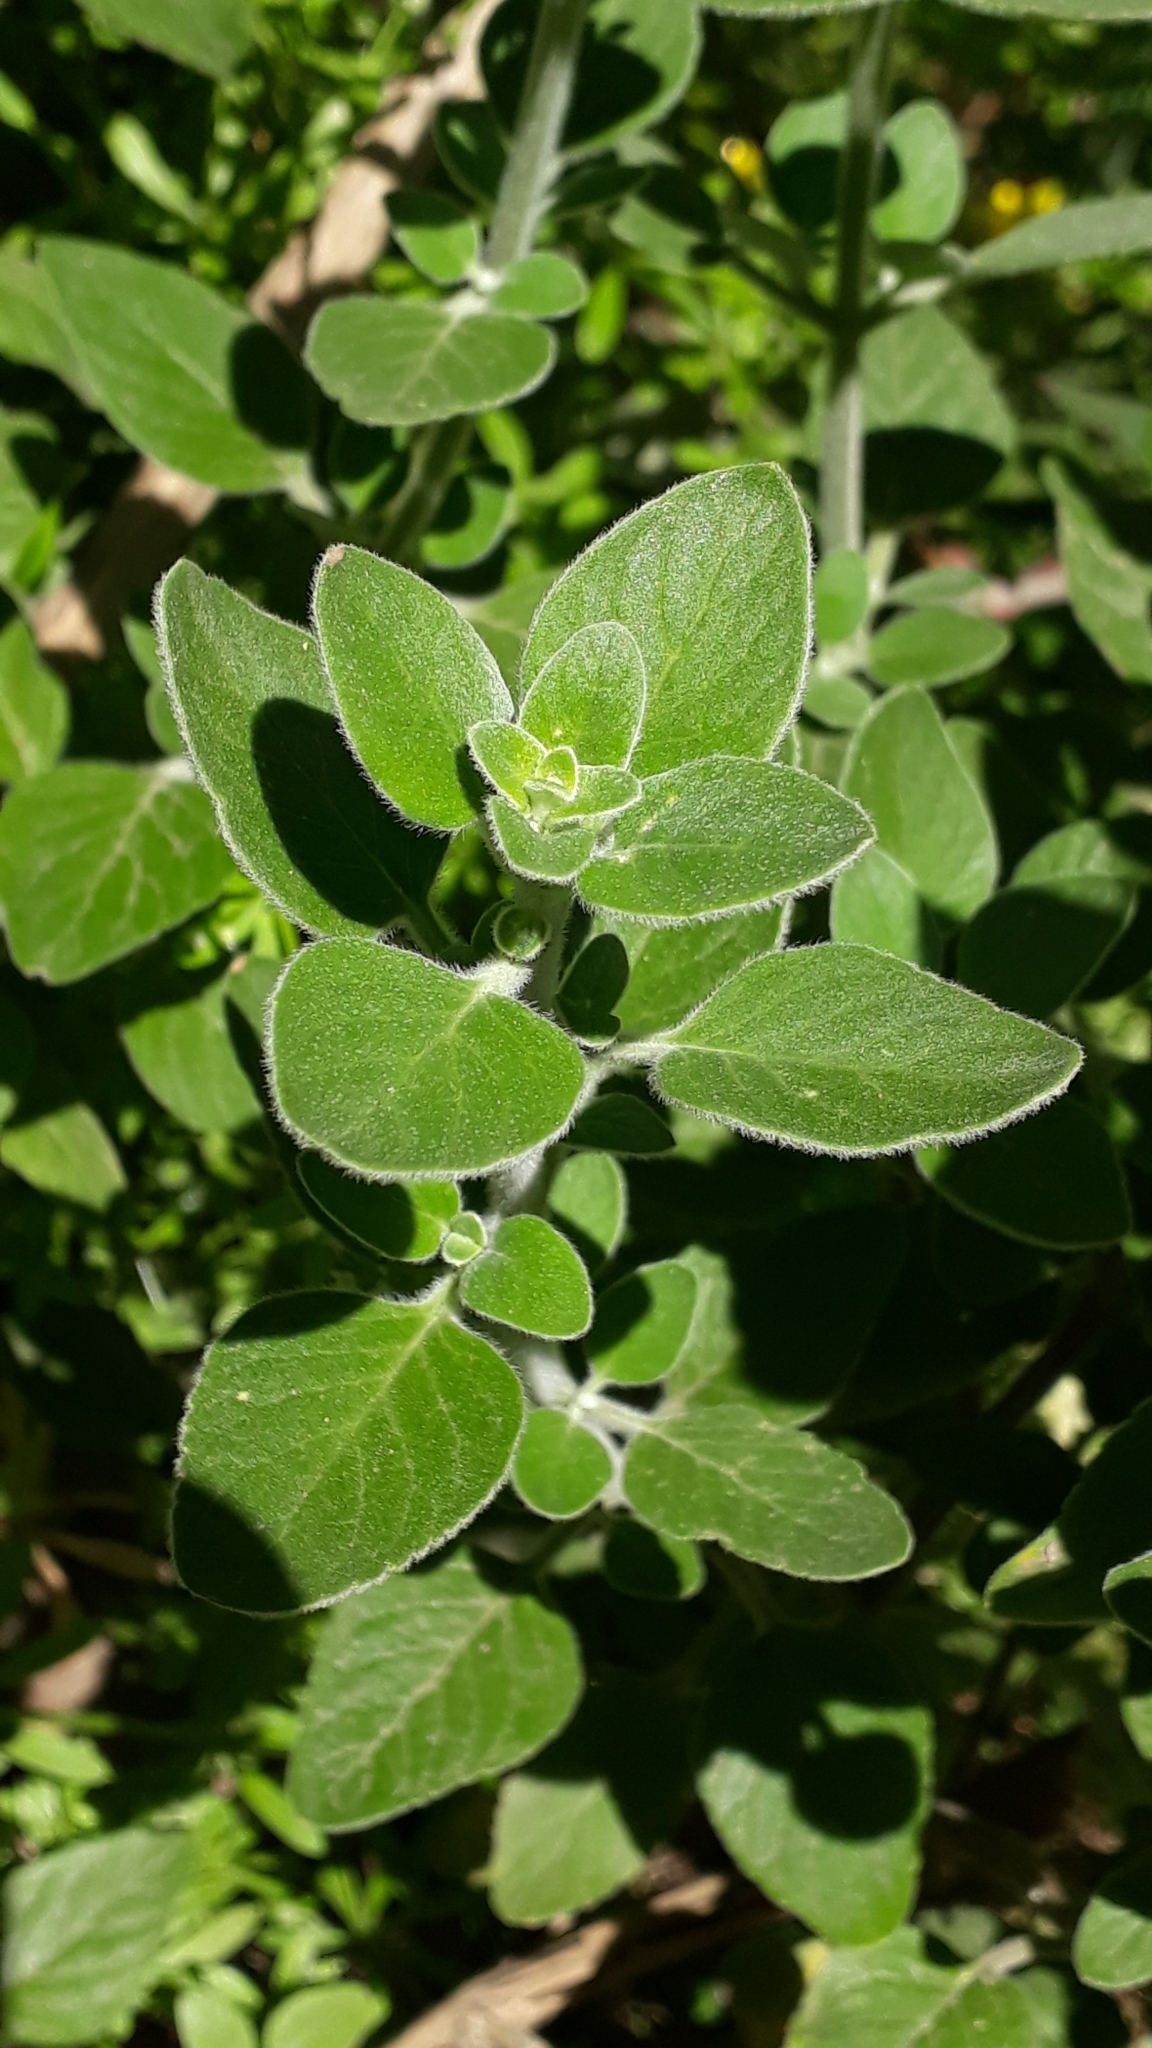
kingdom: Plantae
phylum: Tracheophyta
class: Magnoliopsida
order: Lamiales
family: Lamiaceae
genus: Bystropogon
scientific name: Bystropogon plumosus
